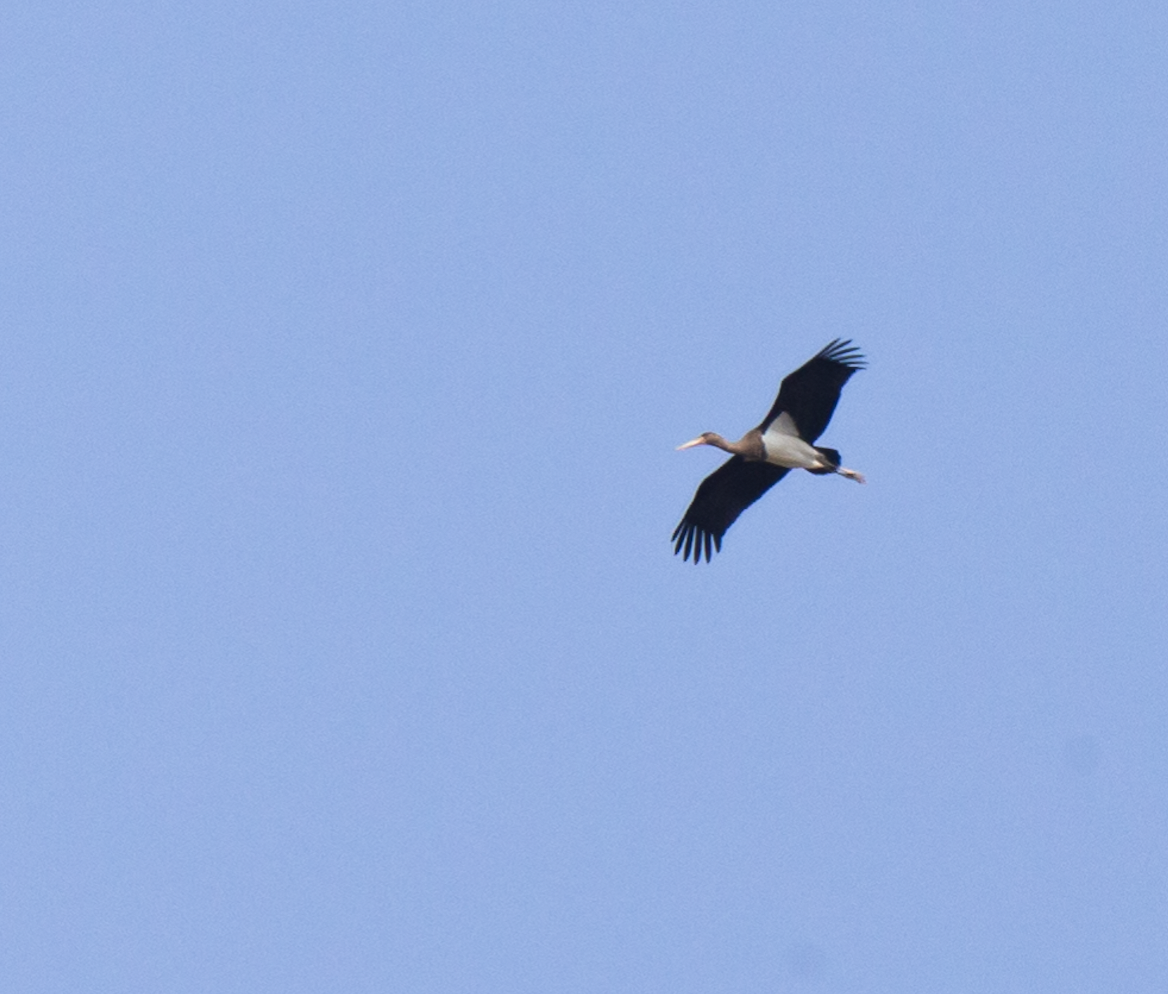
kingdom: Animalia
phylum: Chordata
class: Aves
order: Ciconiiformes
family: Ciconiidae
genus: Ciconia
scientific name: Ciconia nigra
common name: Black stork
